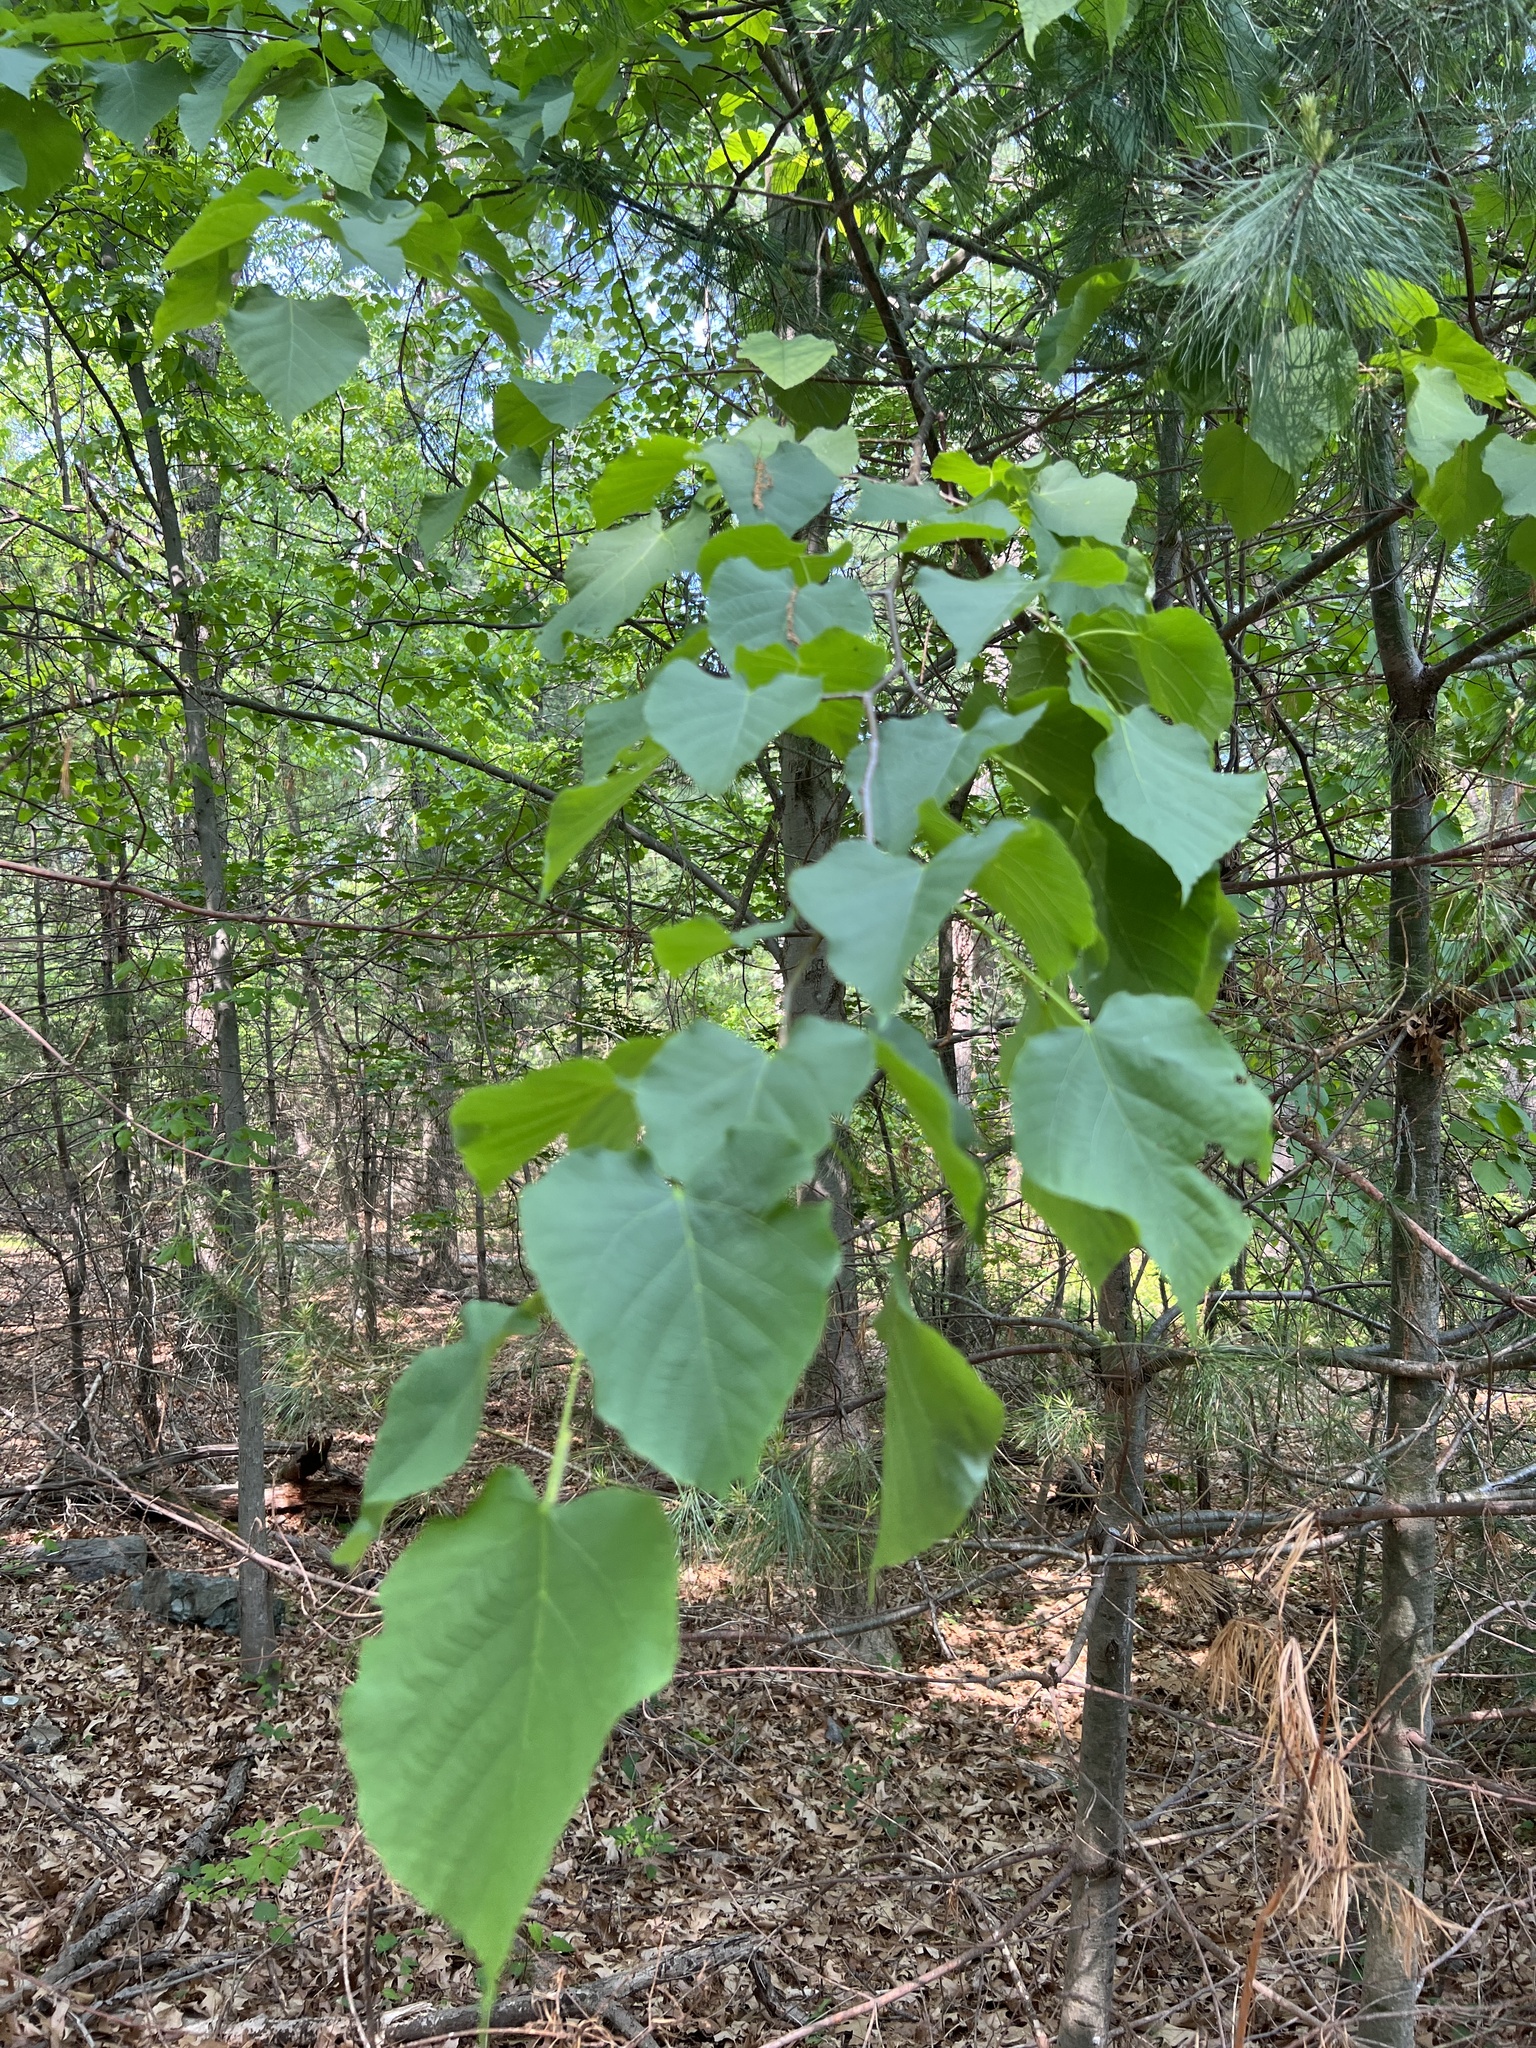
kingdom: Plantae
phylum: Tracheophyta
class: Magnoliopsida
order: Malvales
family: Malvaceae
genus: Tilia
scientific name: Tilia americana
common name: Basswood
